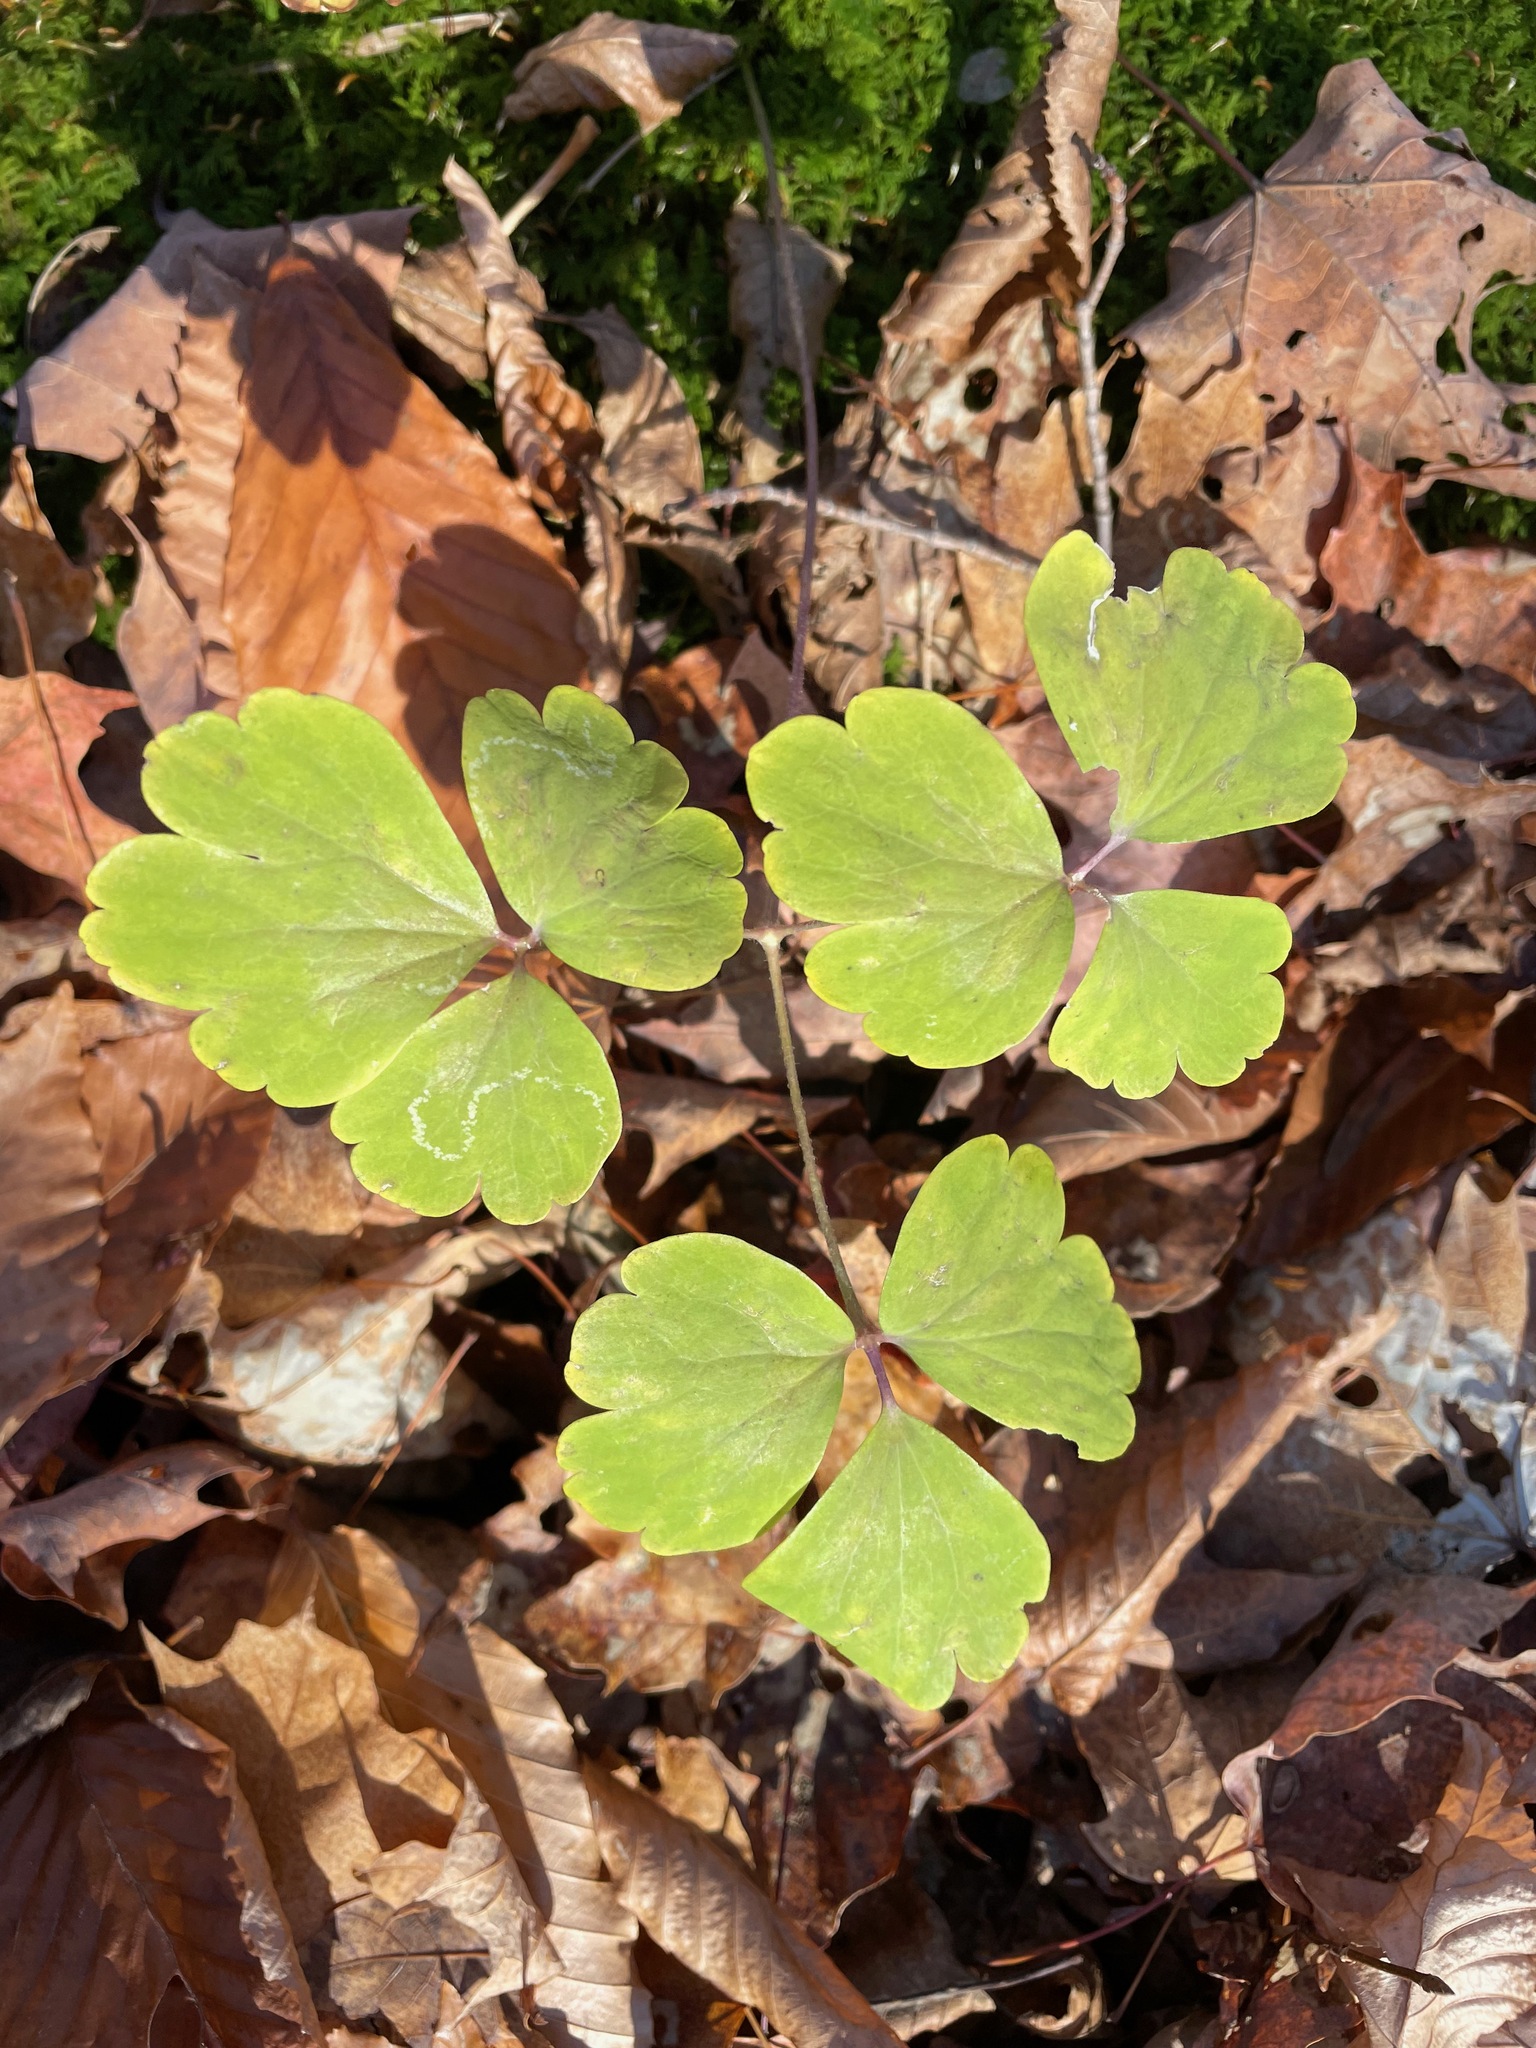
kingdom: Plantae
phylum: Tracheophyta
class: Magnoliopsida
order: Ranunculales
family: Ranunculaceae
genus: Aquilegia
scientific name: Aquilegia canadensis
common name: American columbine
